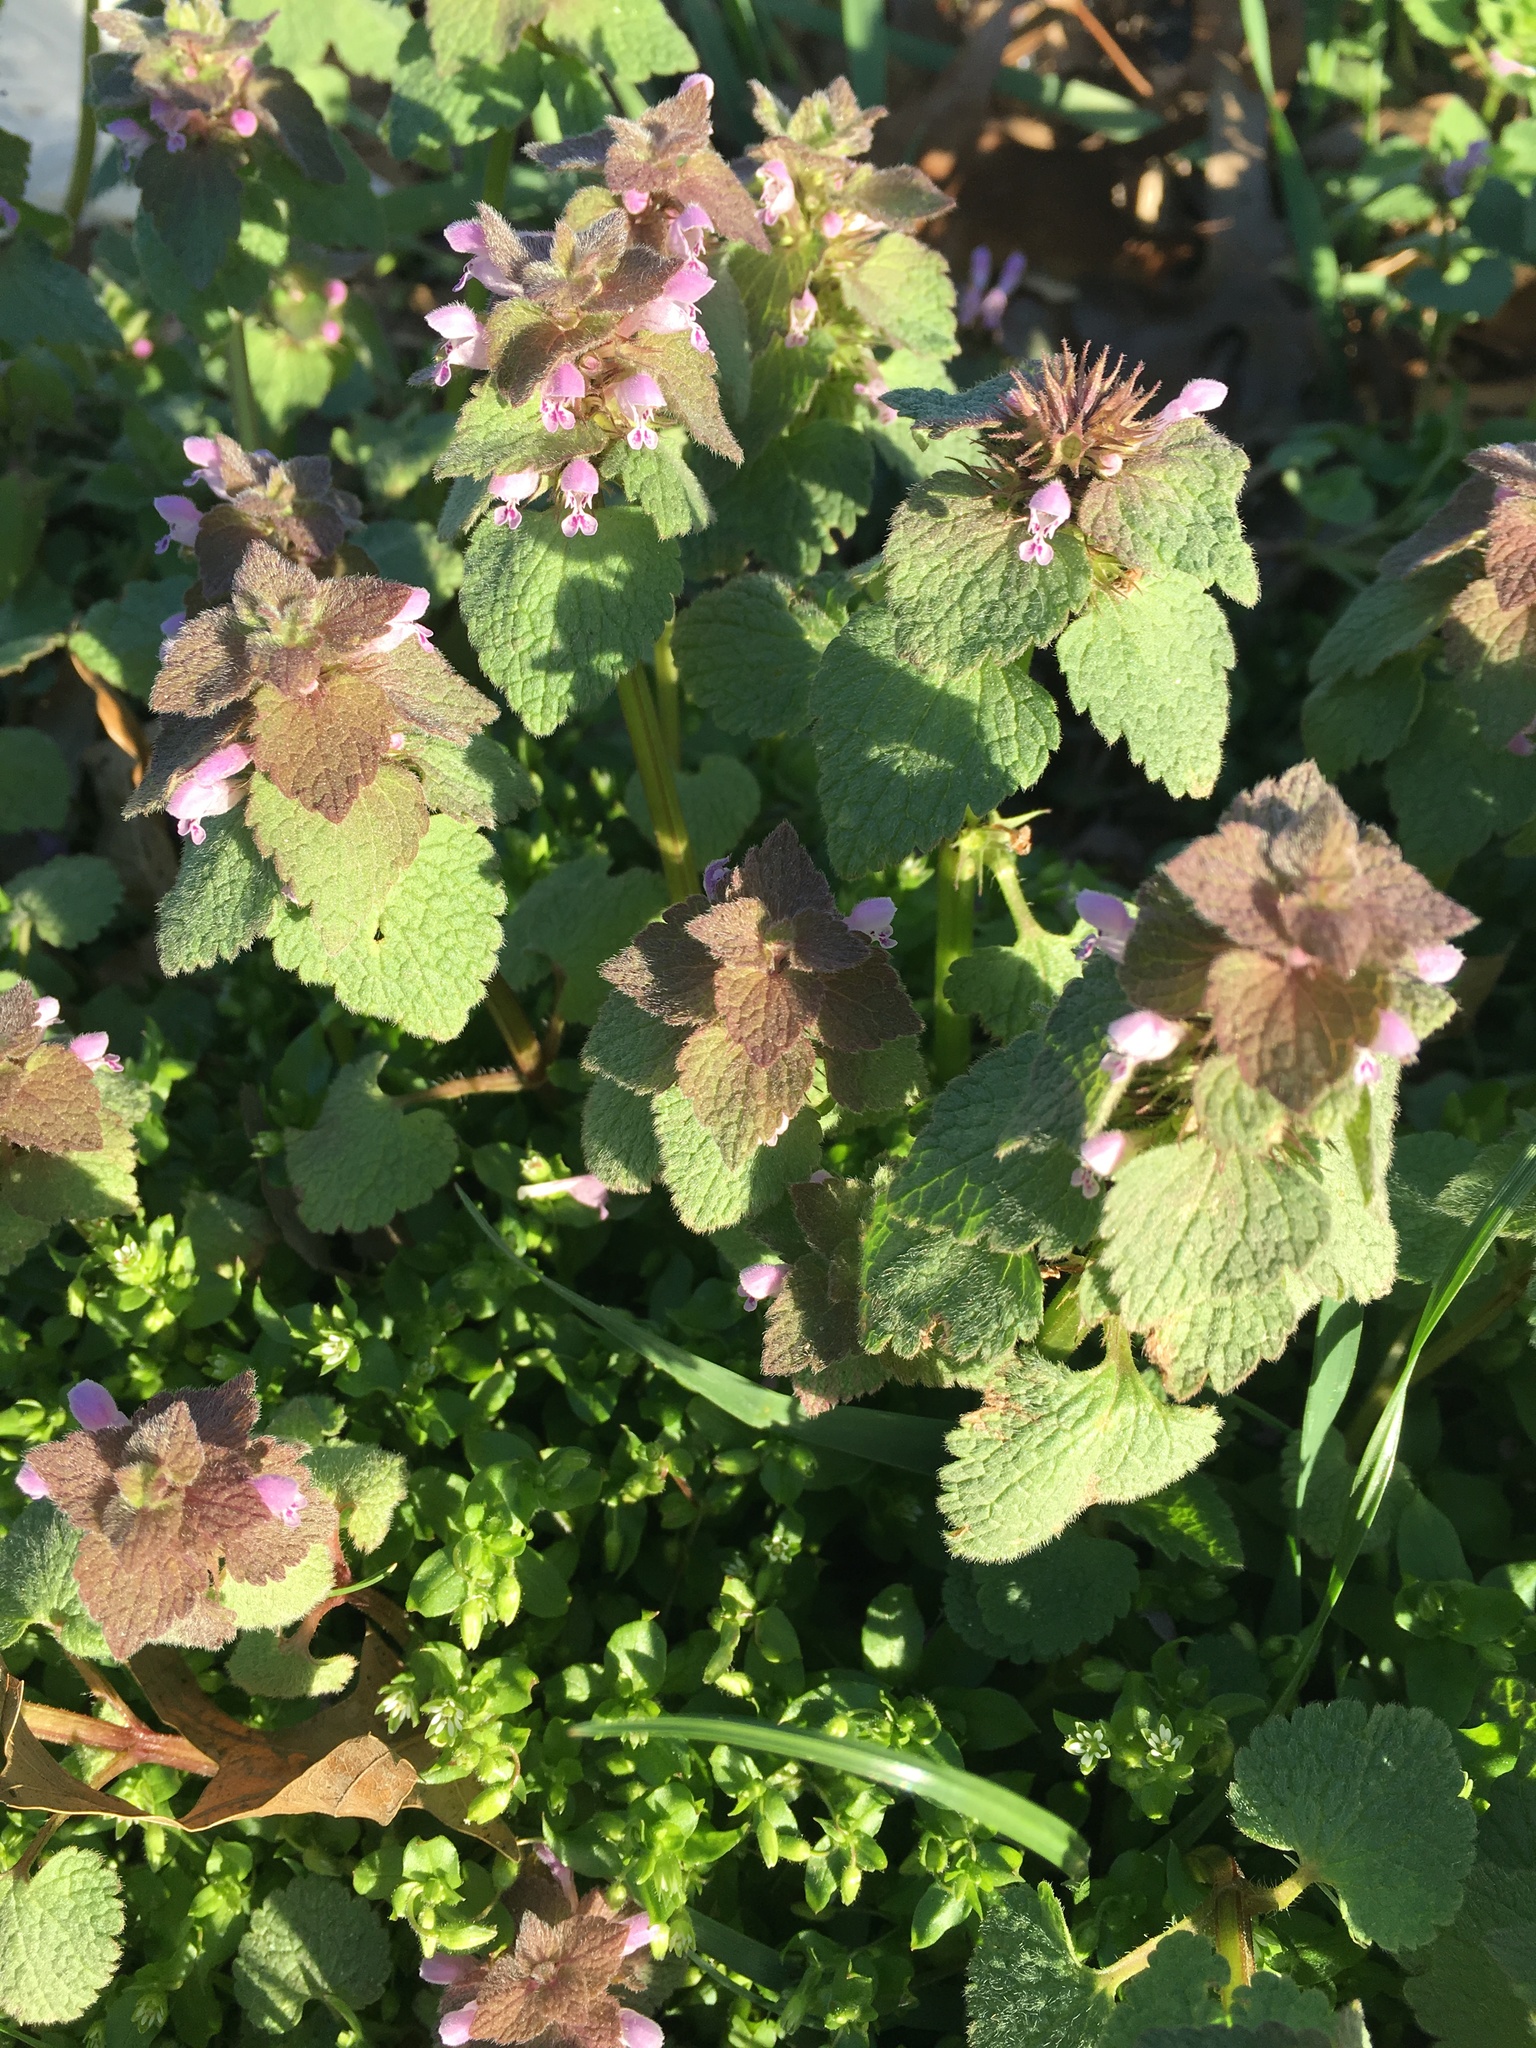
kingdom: Plantae
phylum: Tracheophyta
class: Magnoliopsida
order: Lamiales
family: Lamiaceae
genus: Lamium
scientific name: Lamium purpureum
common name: Red dead-nettle
